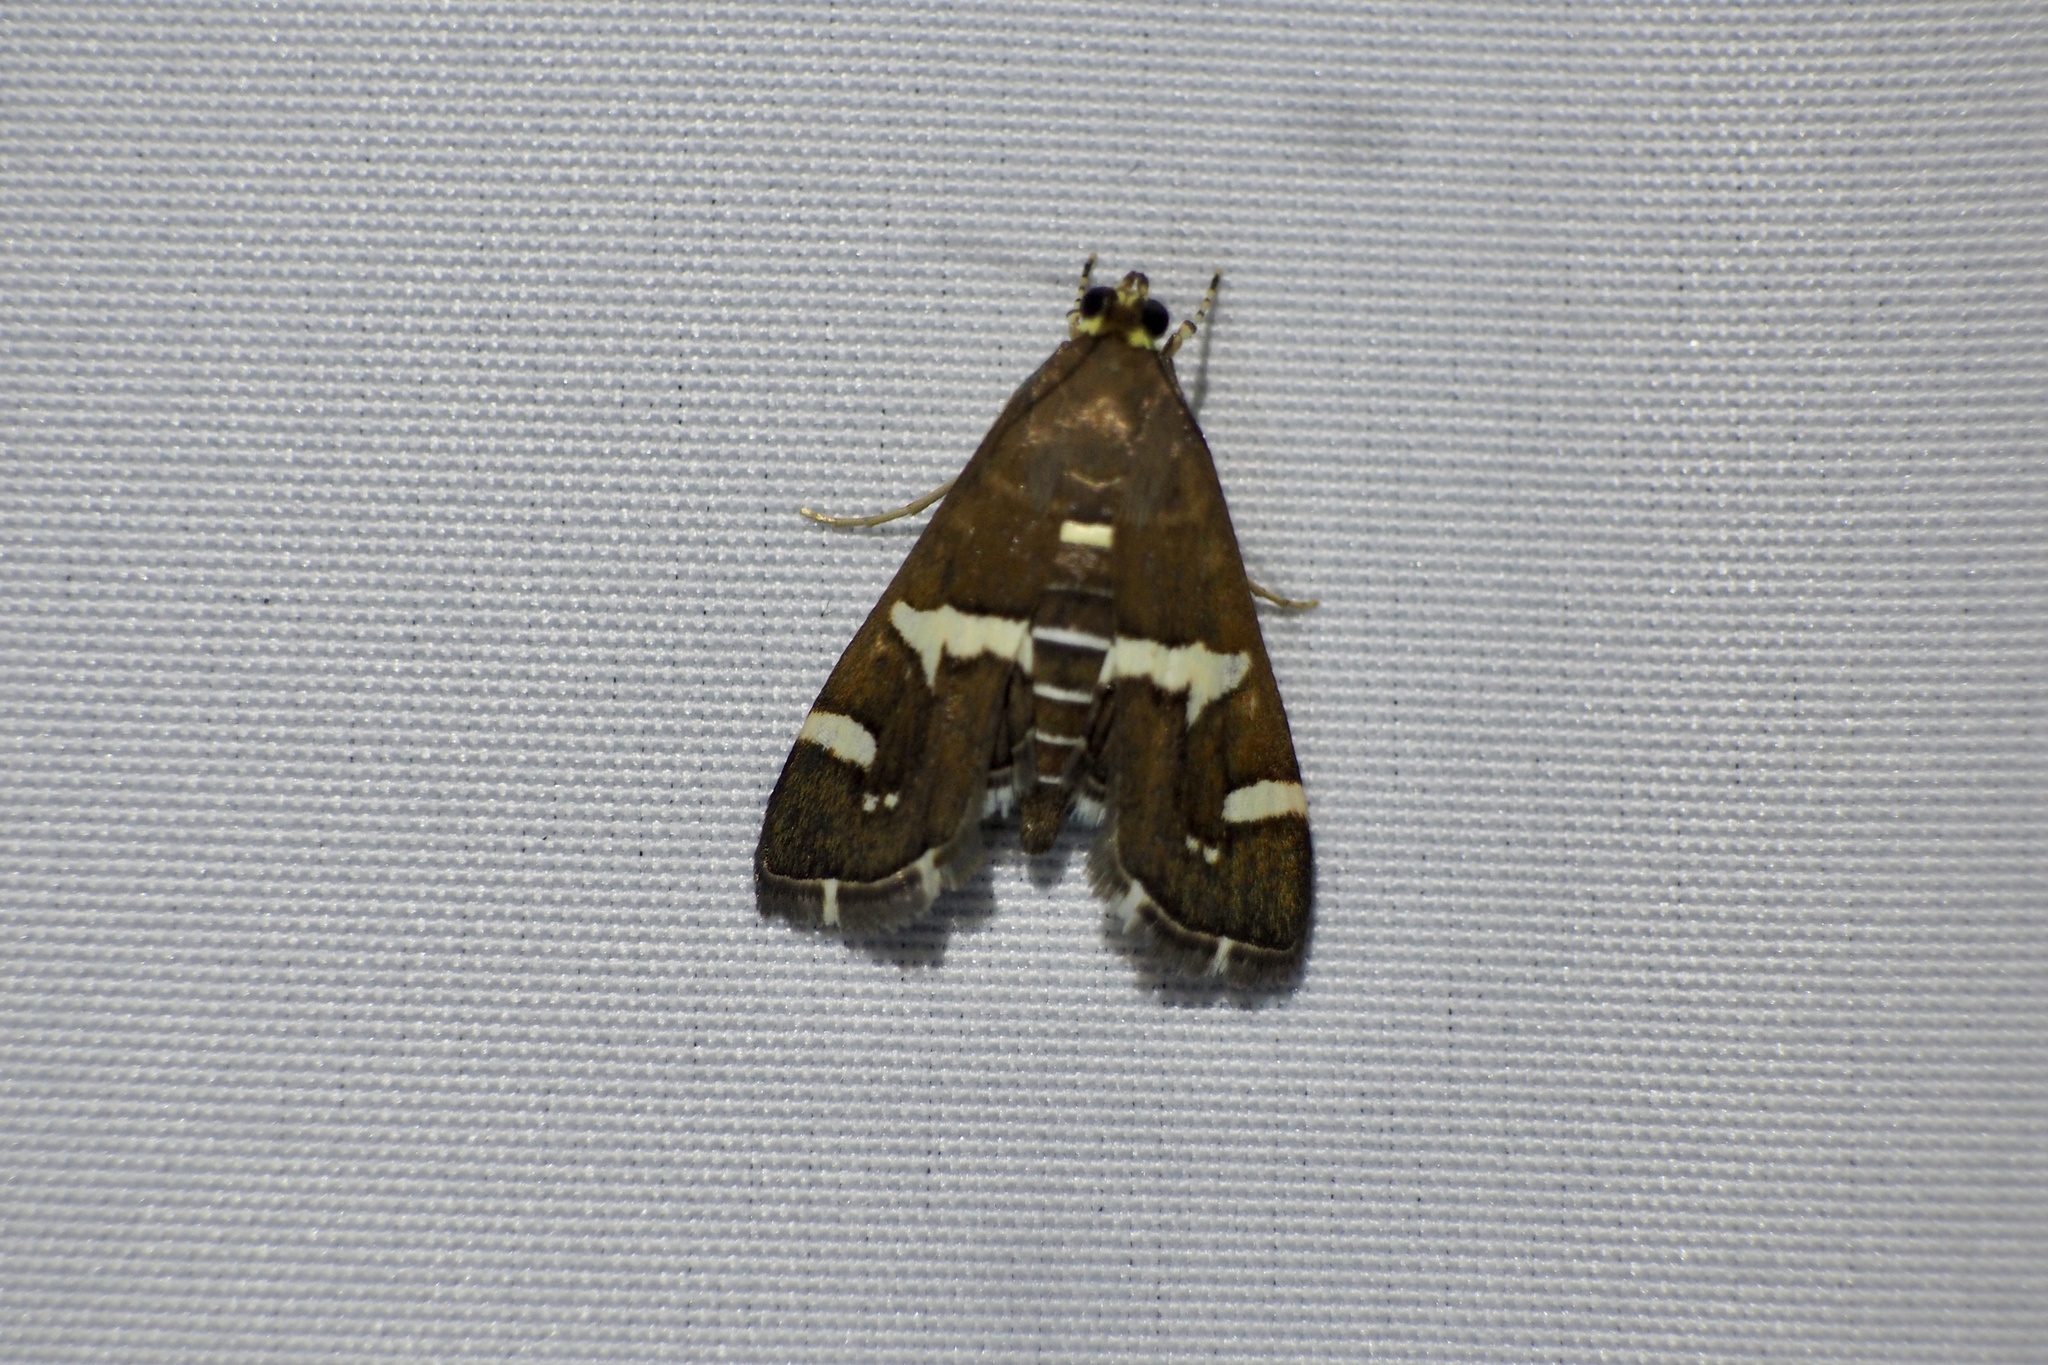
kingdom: Animalia
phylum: Arthropoda
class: Insecta
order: Lepidoptera
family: Crambidae
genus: Spoladea
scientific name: Spoladea recurvalis
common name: Beet webworm moth
